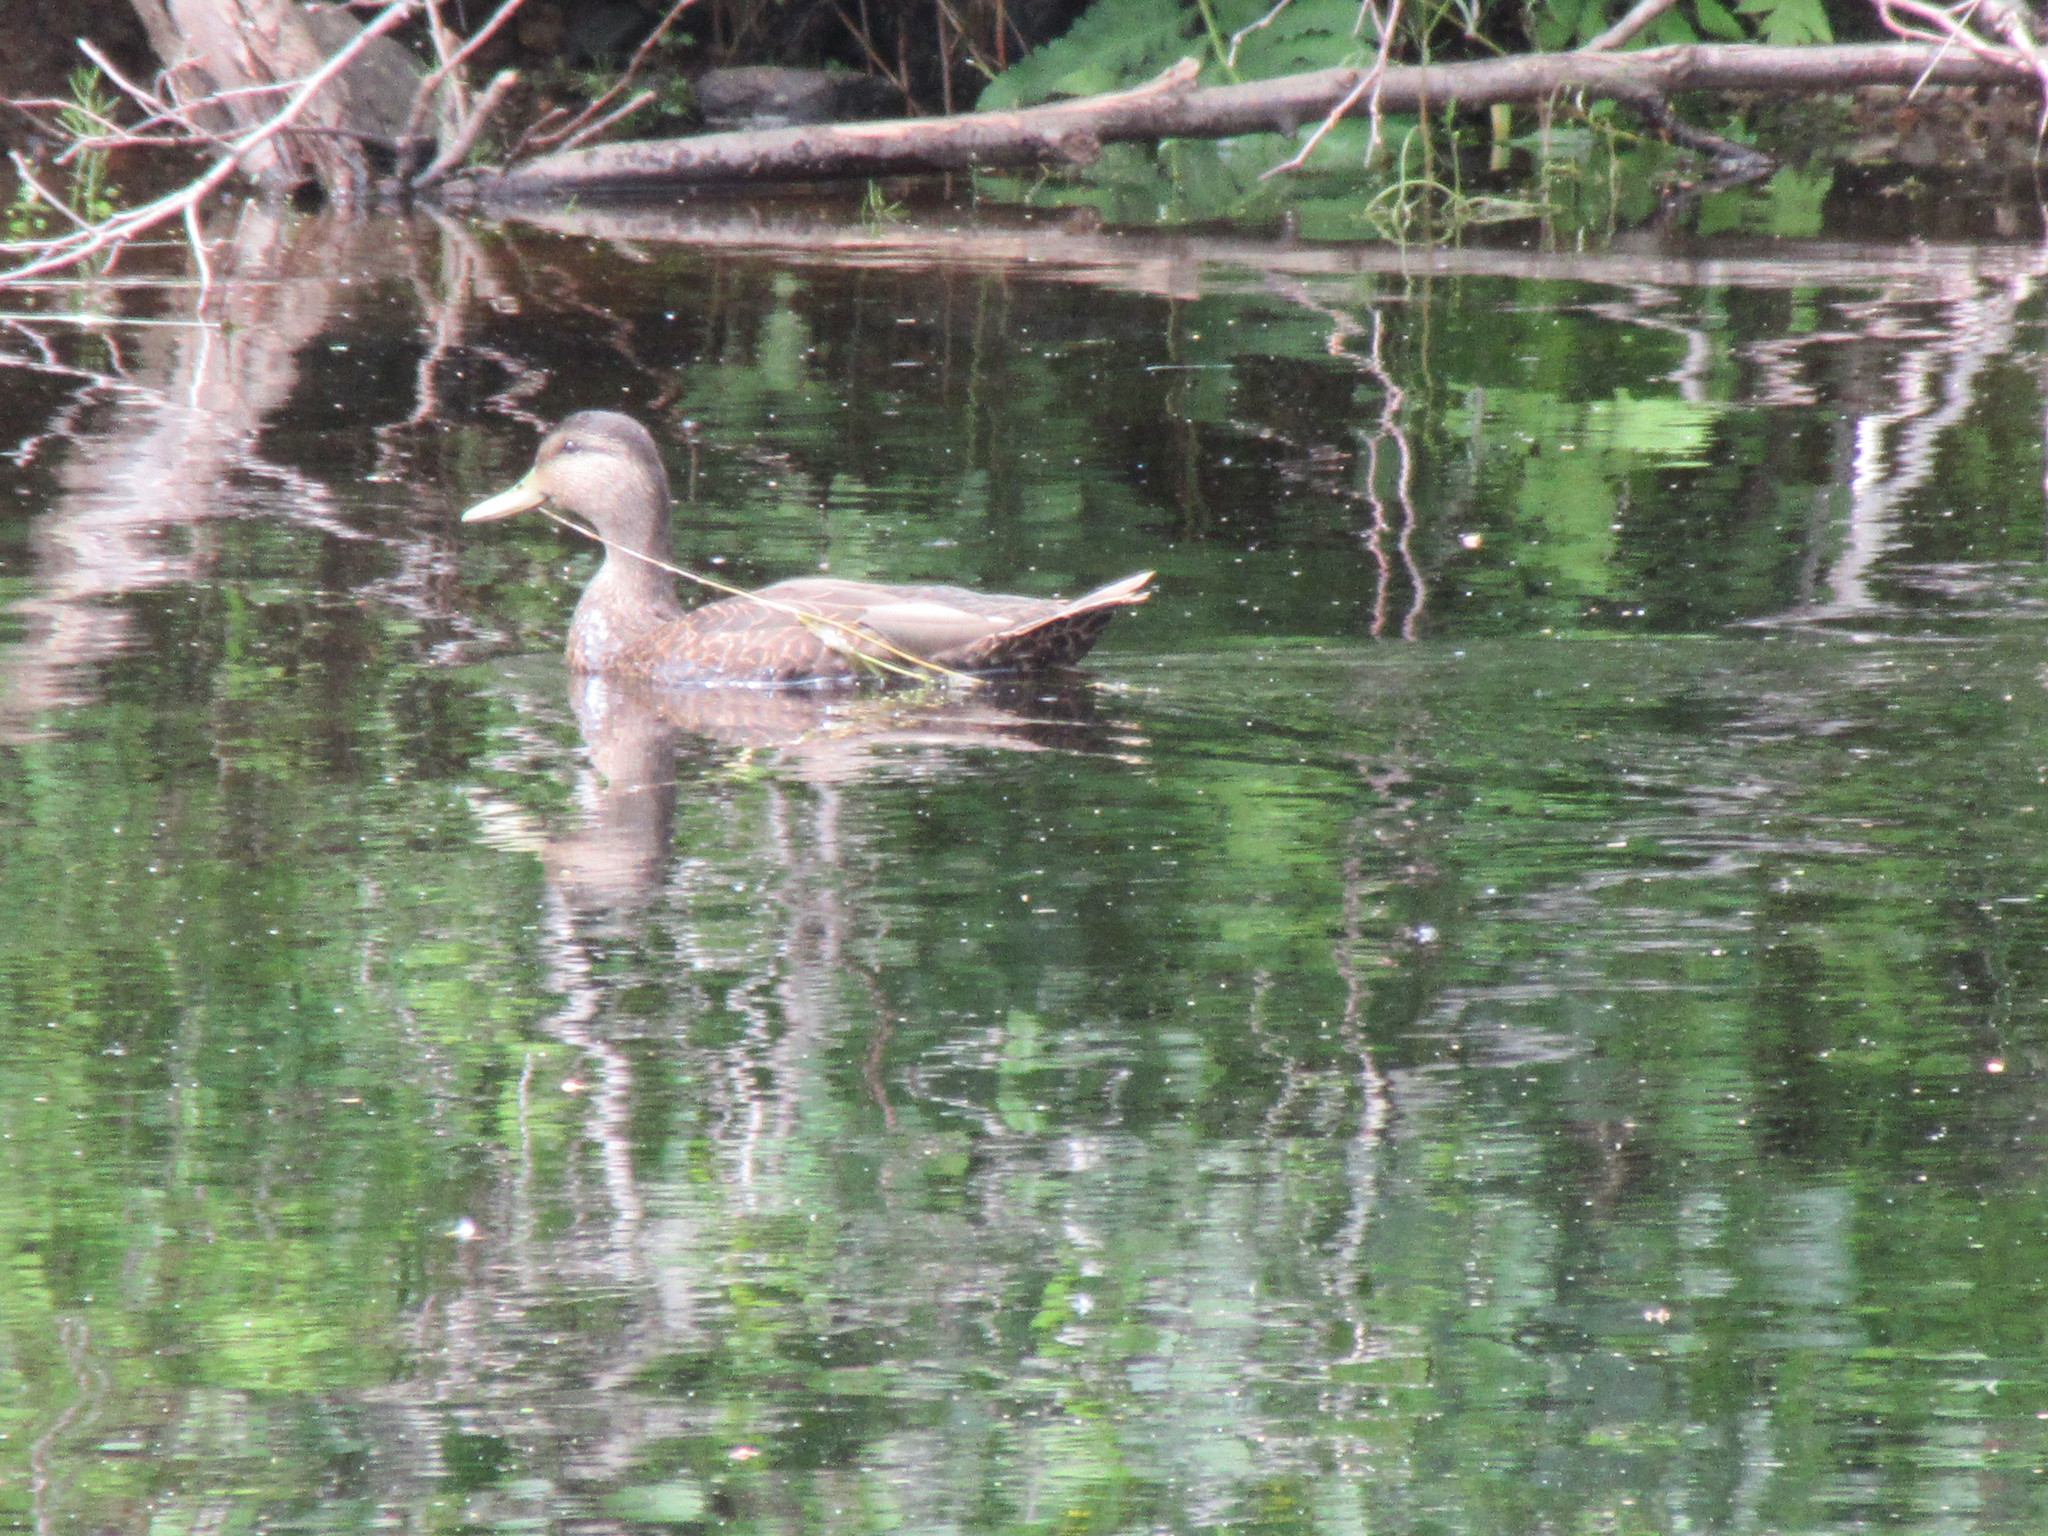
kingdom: Animalia
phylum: Chordata
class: Aves
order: Anseriformes
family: Anatidae
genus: Anas
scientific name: Anas rubripes
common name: American black duck
